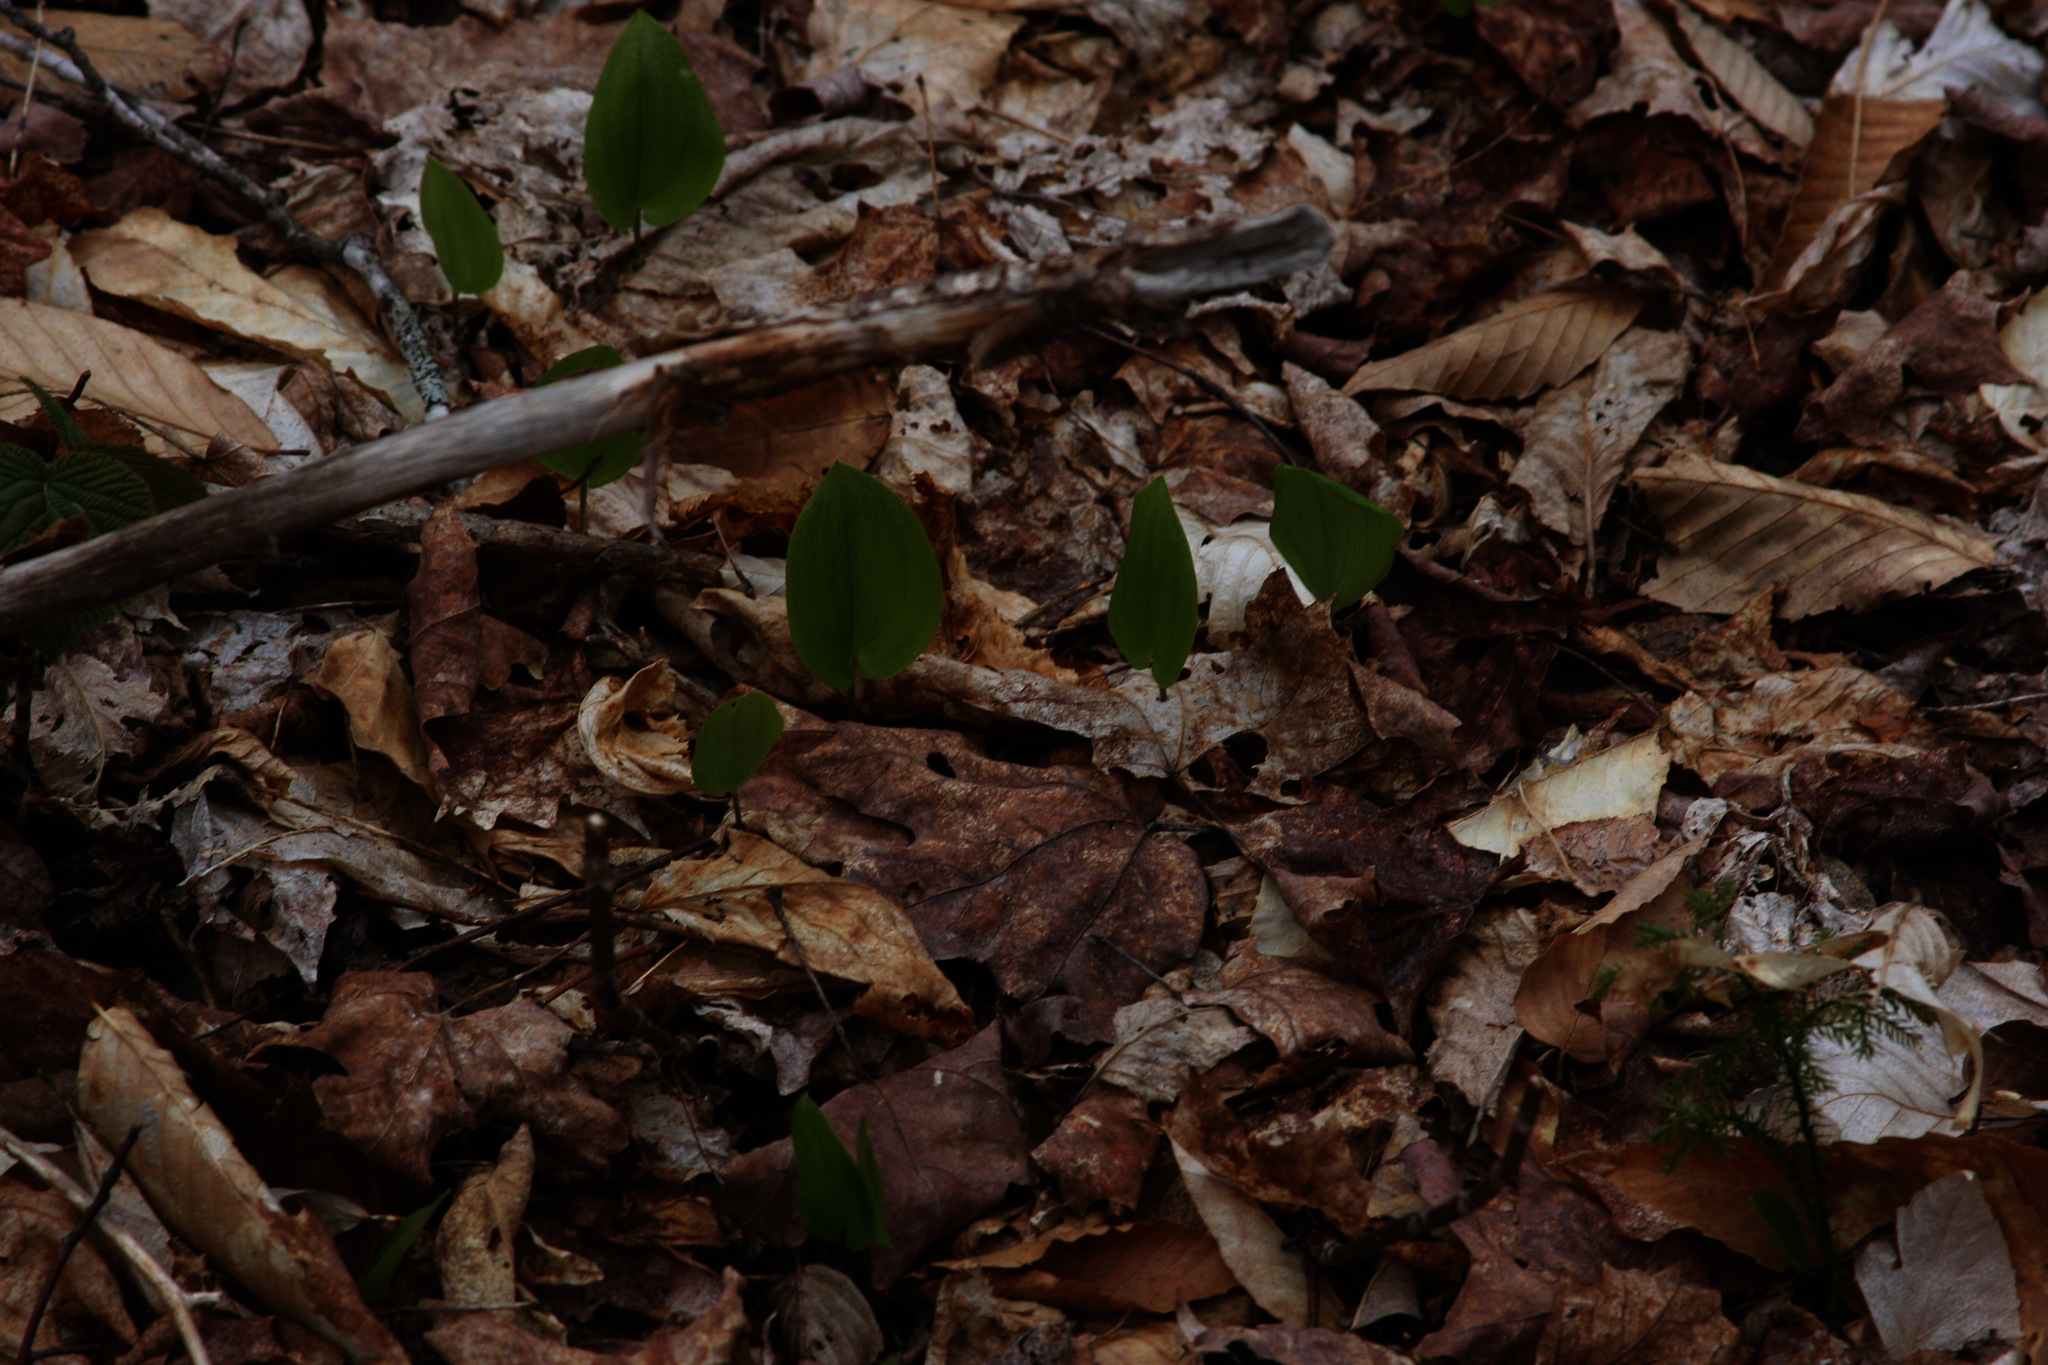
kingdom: Plantae
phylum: Tracheophyta
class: Liliopsida
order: Asparagales
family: Asparagaceae
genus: Maianthemum
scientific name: Maianthemum canadense
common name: False lily-of-the-valley
